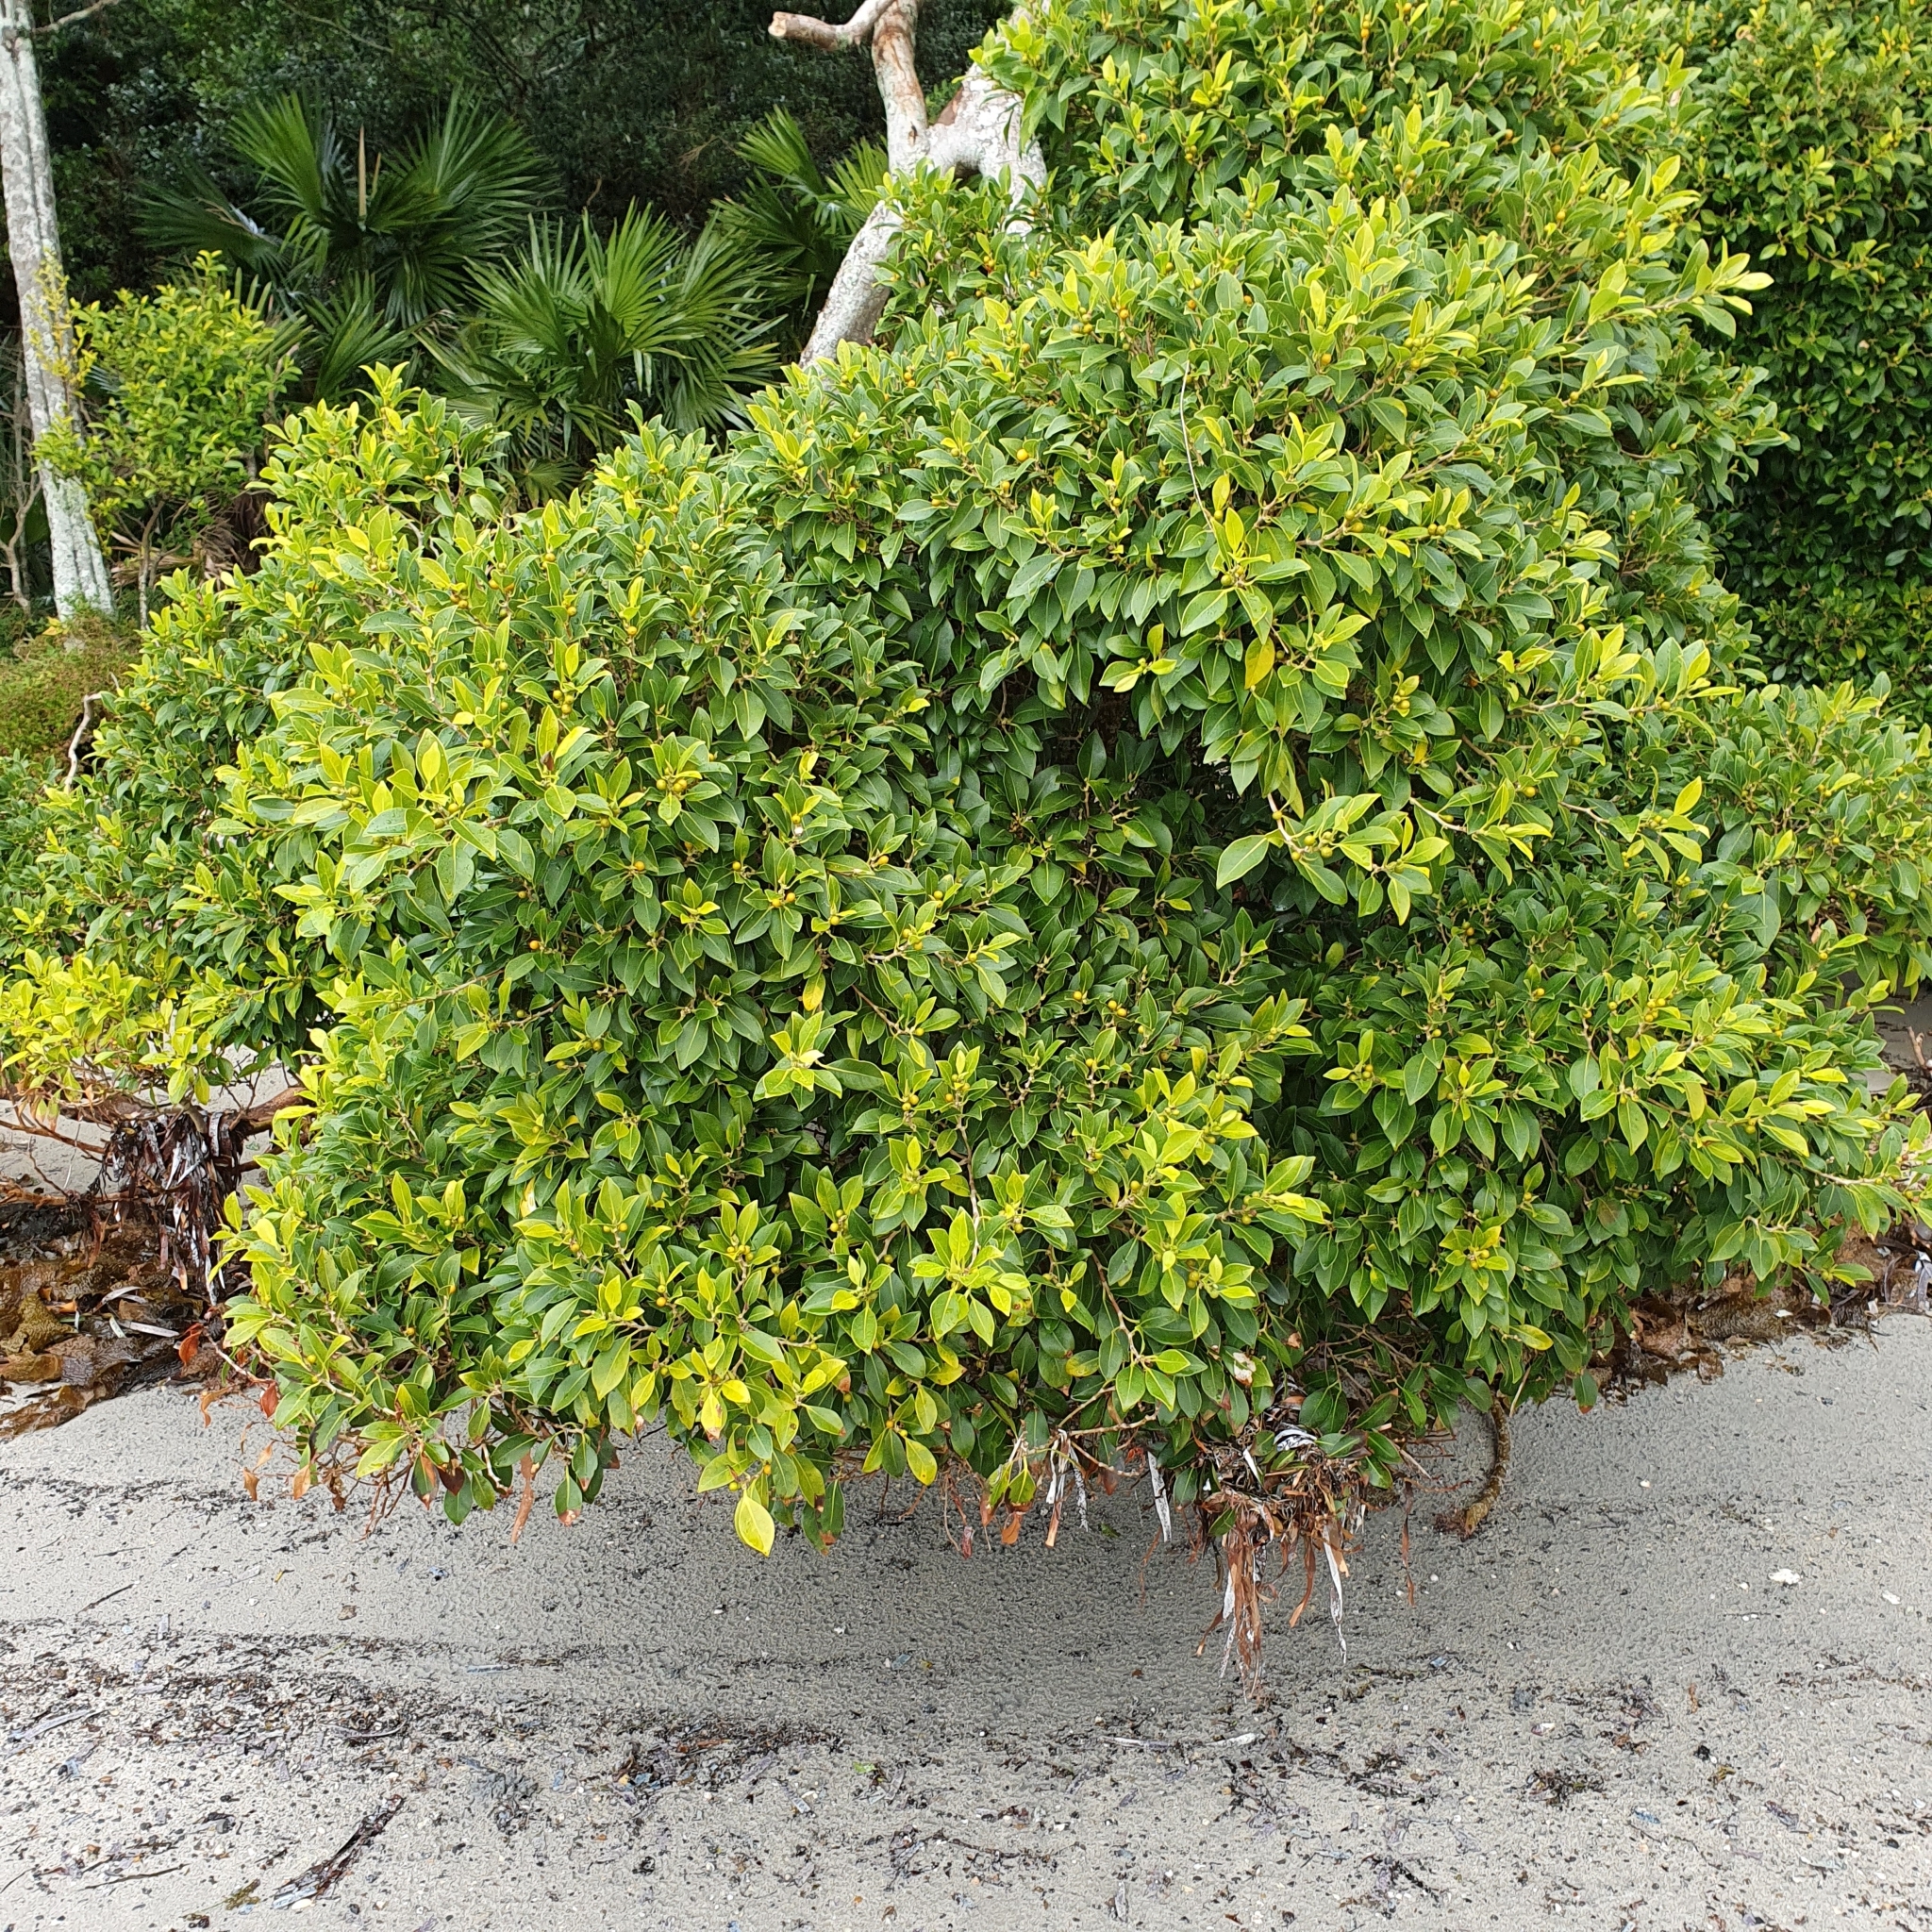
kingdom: Plantae
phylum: Tracheophyta
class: Magnoliopsida
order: Rosales
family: Moraceae
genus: Ficus
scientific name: Ficus obliqua
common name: Small-leaf fig
